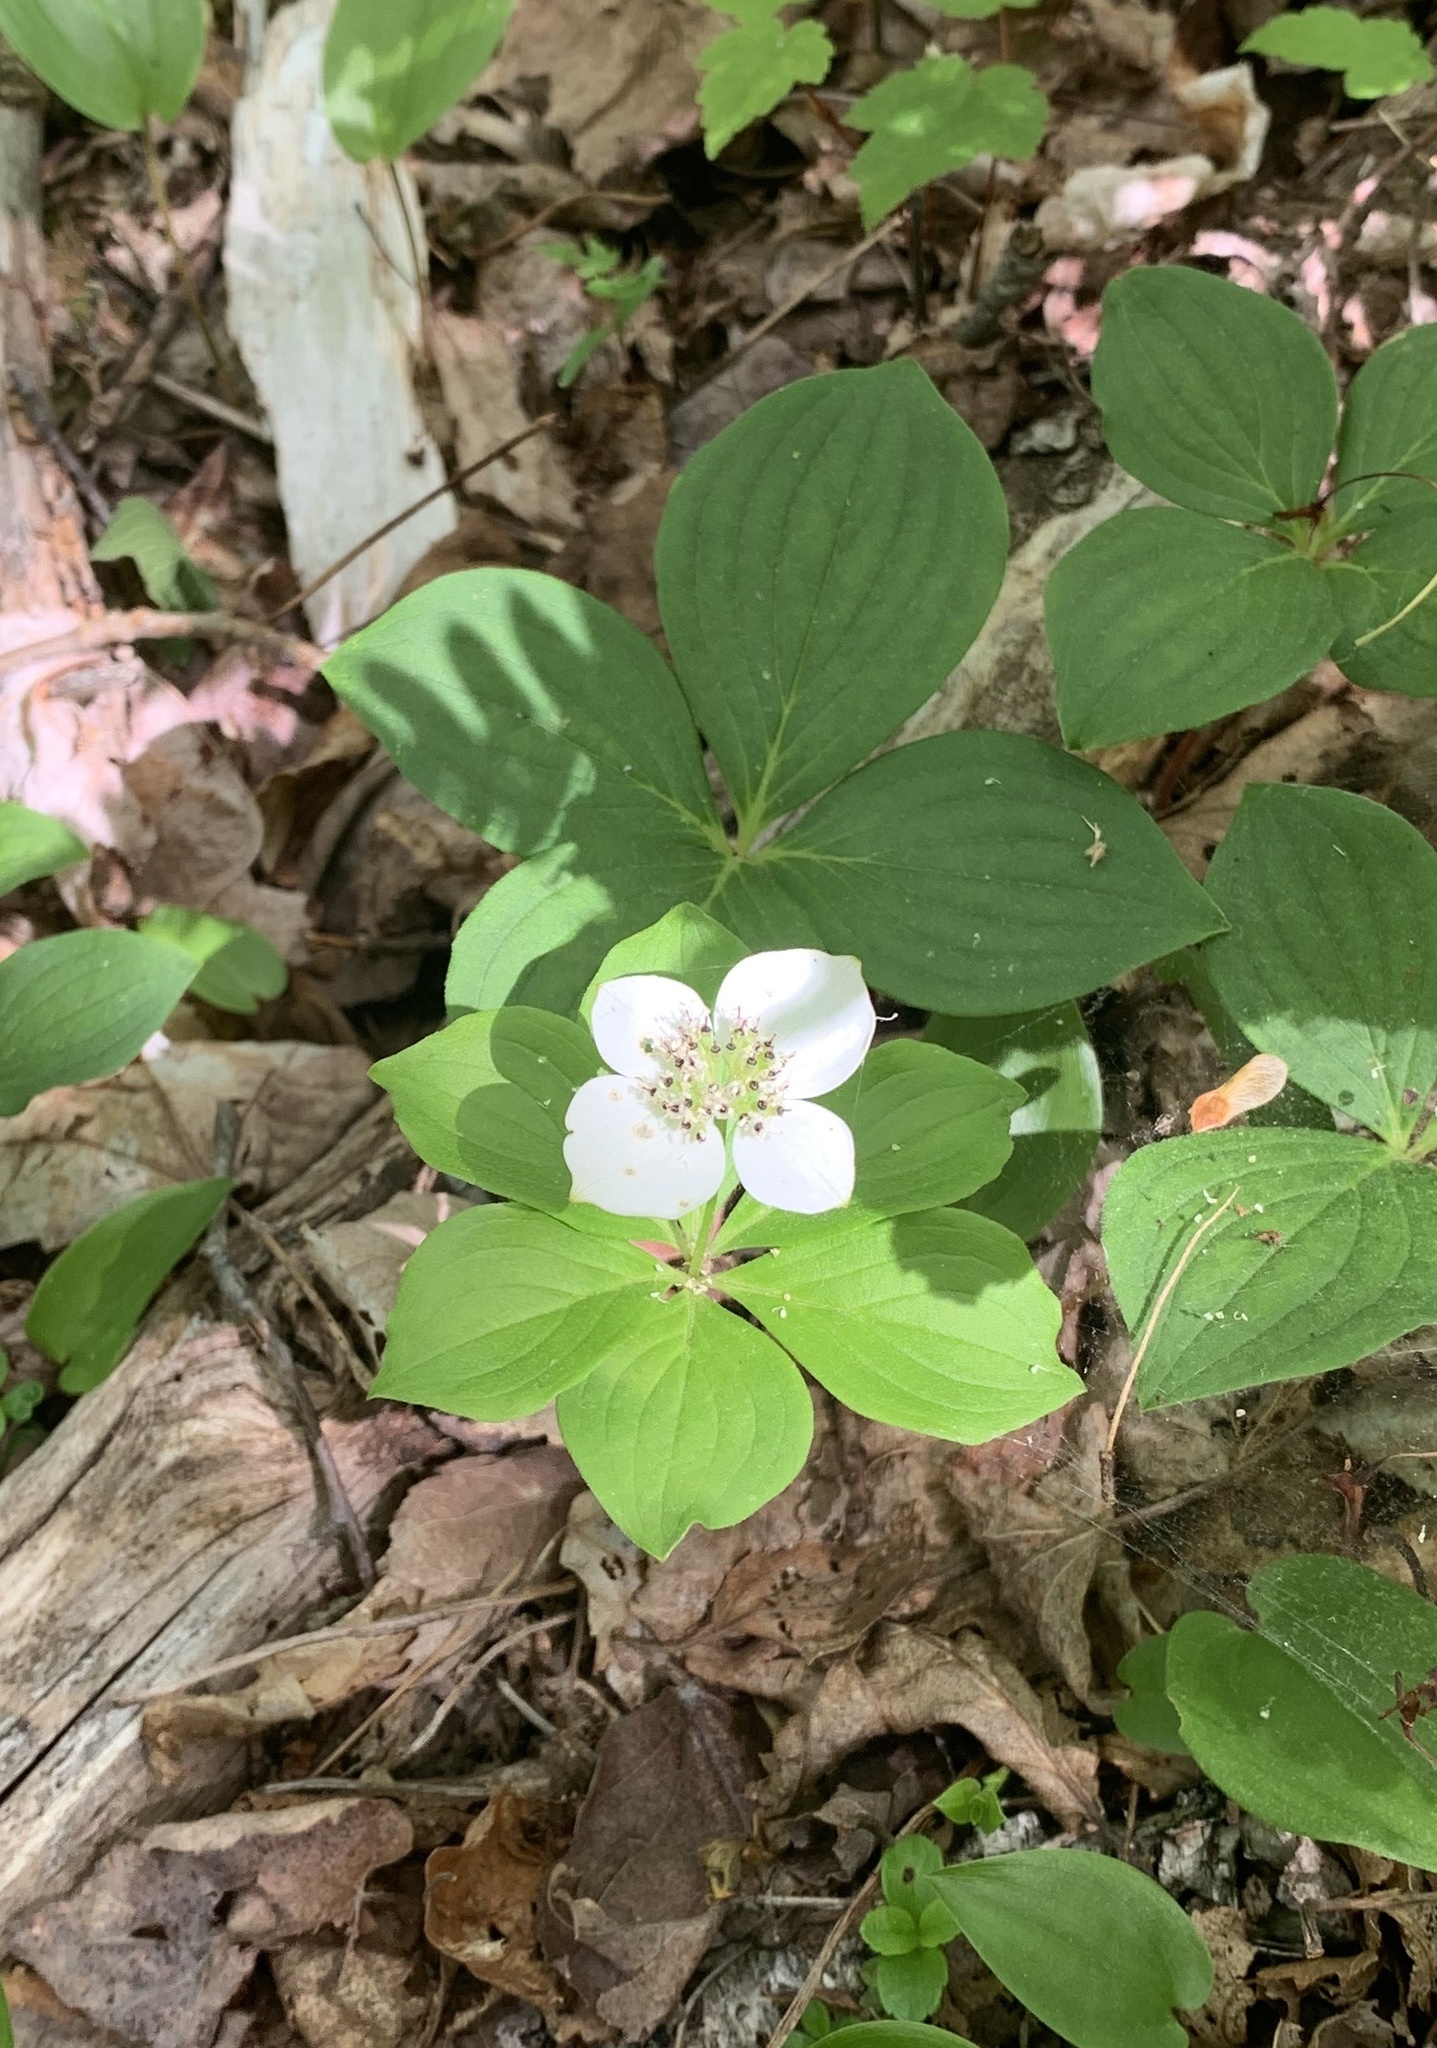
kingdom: Plantae
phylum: Tracheophyta
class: Magnoliopsida
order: Cornales
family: Cornaceae
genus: Cornus
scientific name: Cornus canadensis
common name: Creeping dogwood
